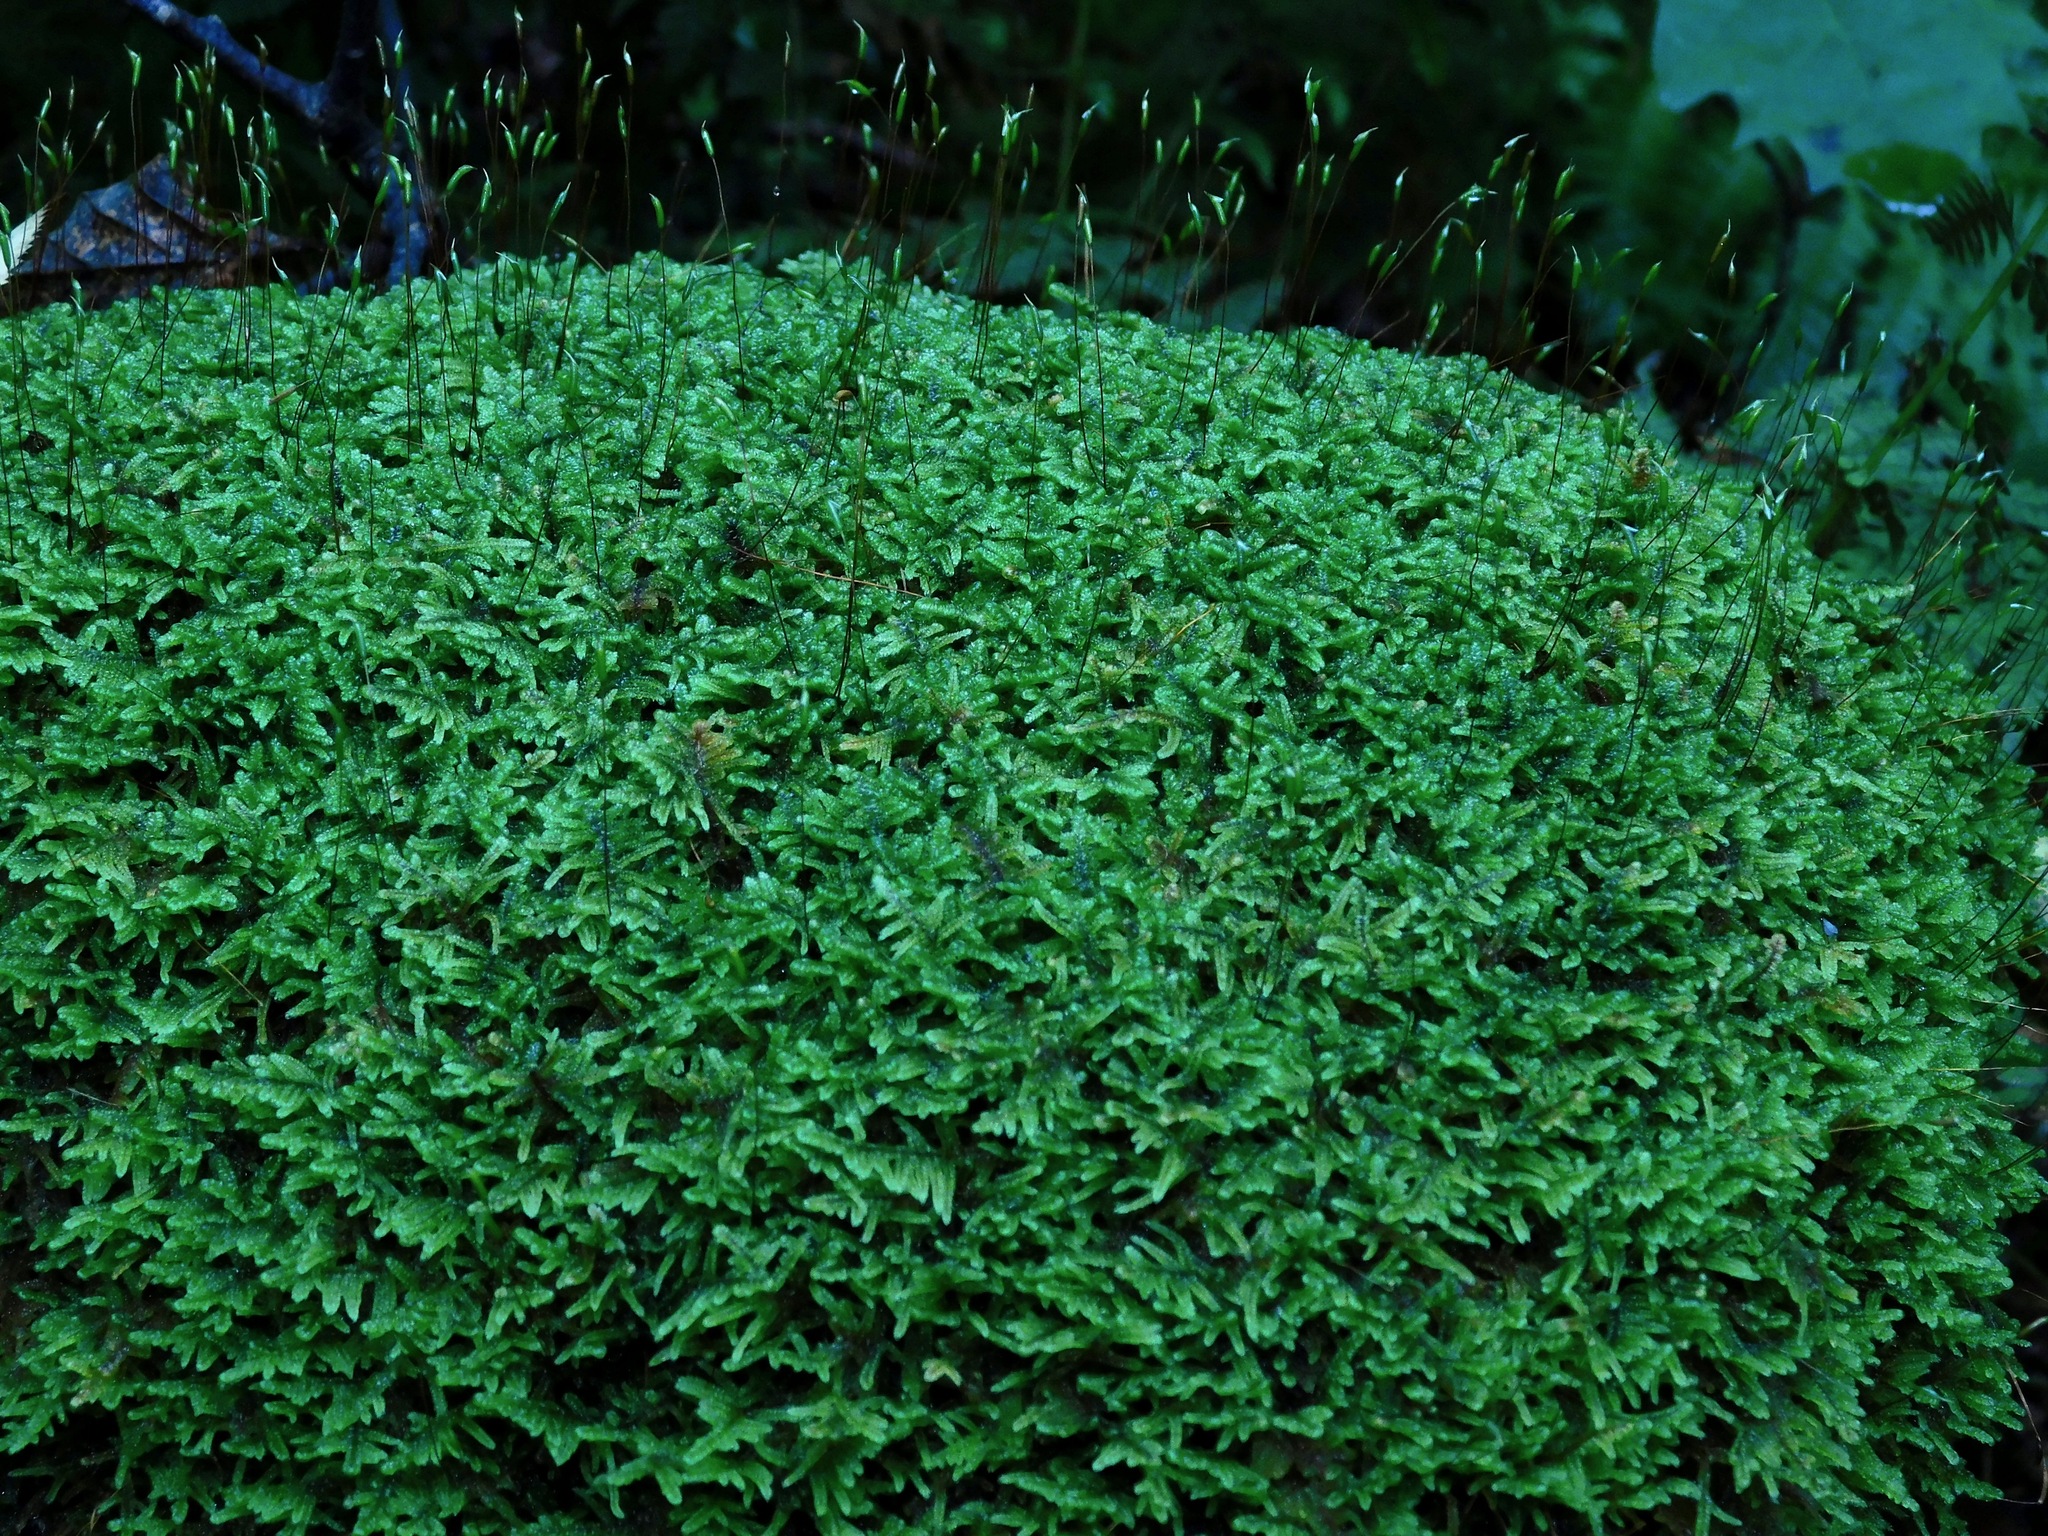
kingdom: Plantae
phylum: Bryophyta
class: Bryopsida
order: Hypnales
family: Callicladiaceae
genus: Callicladium
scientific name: Callicladium imponens
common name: Brocade moss
